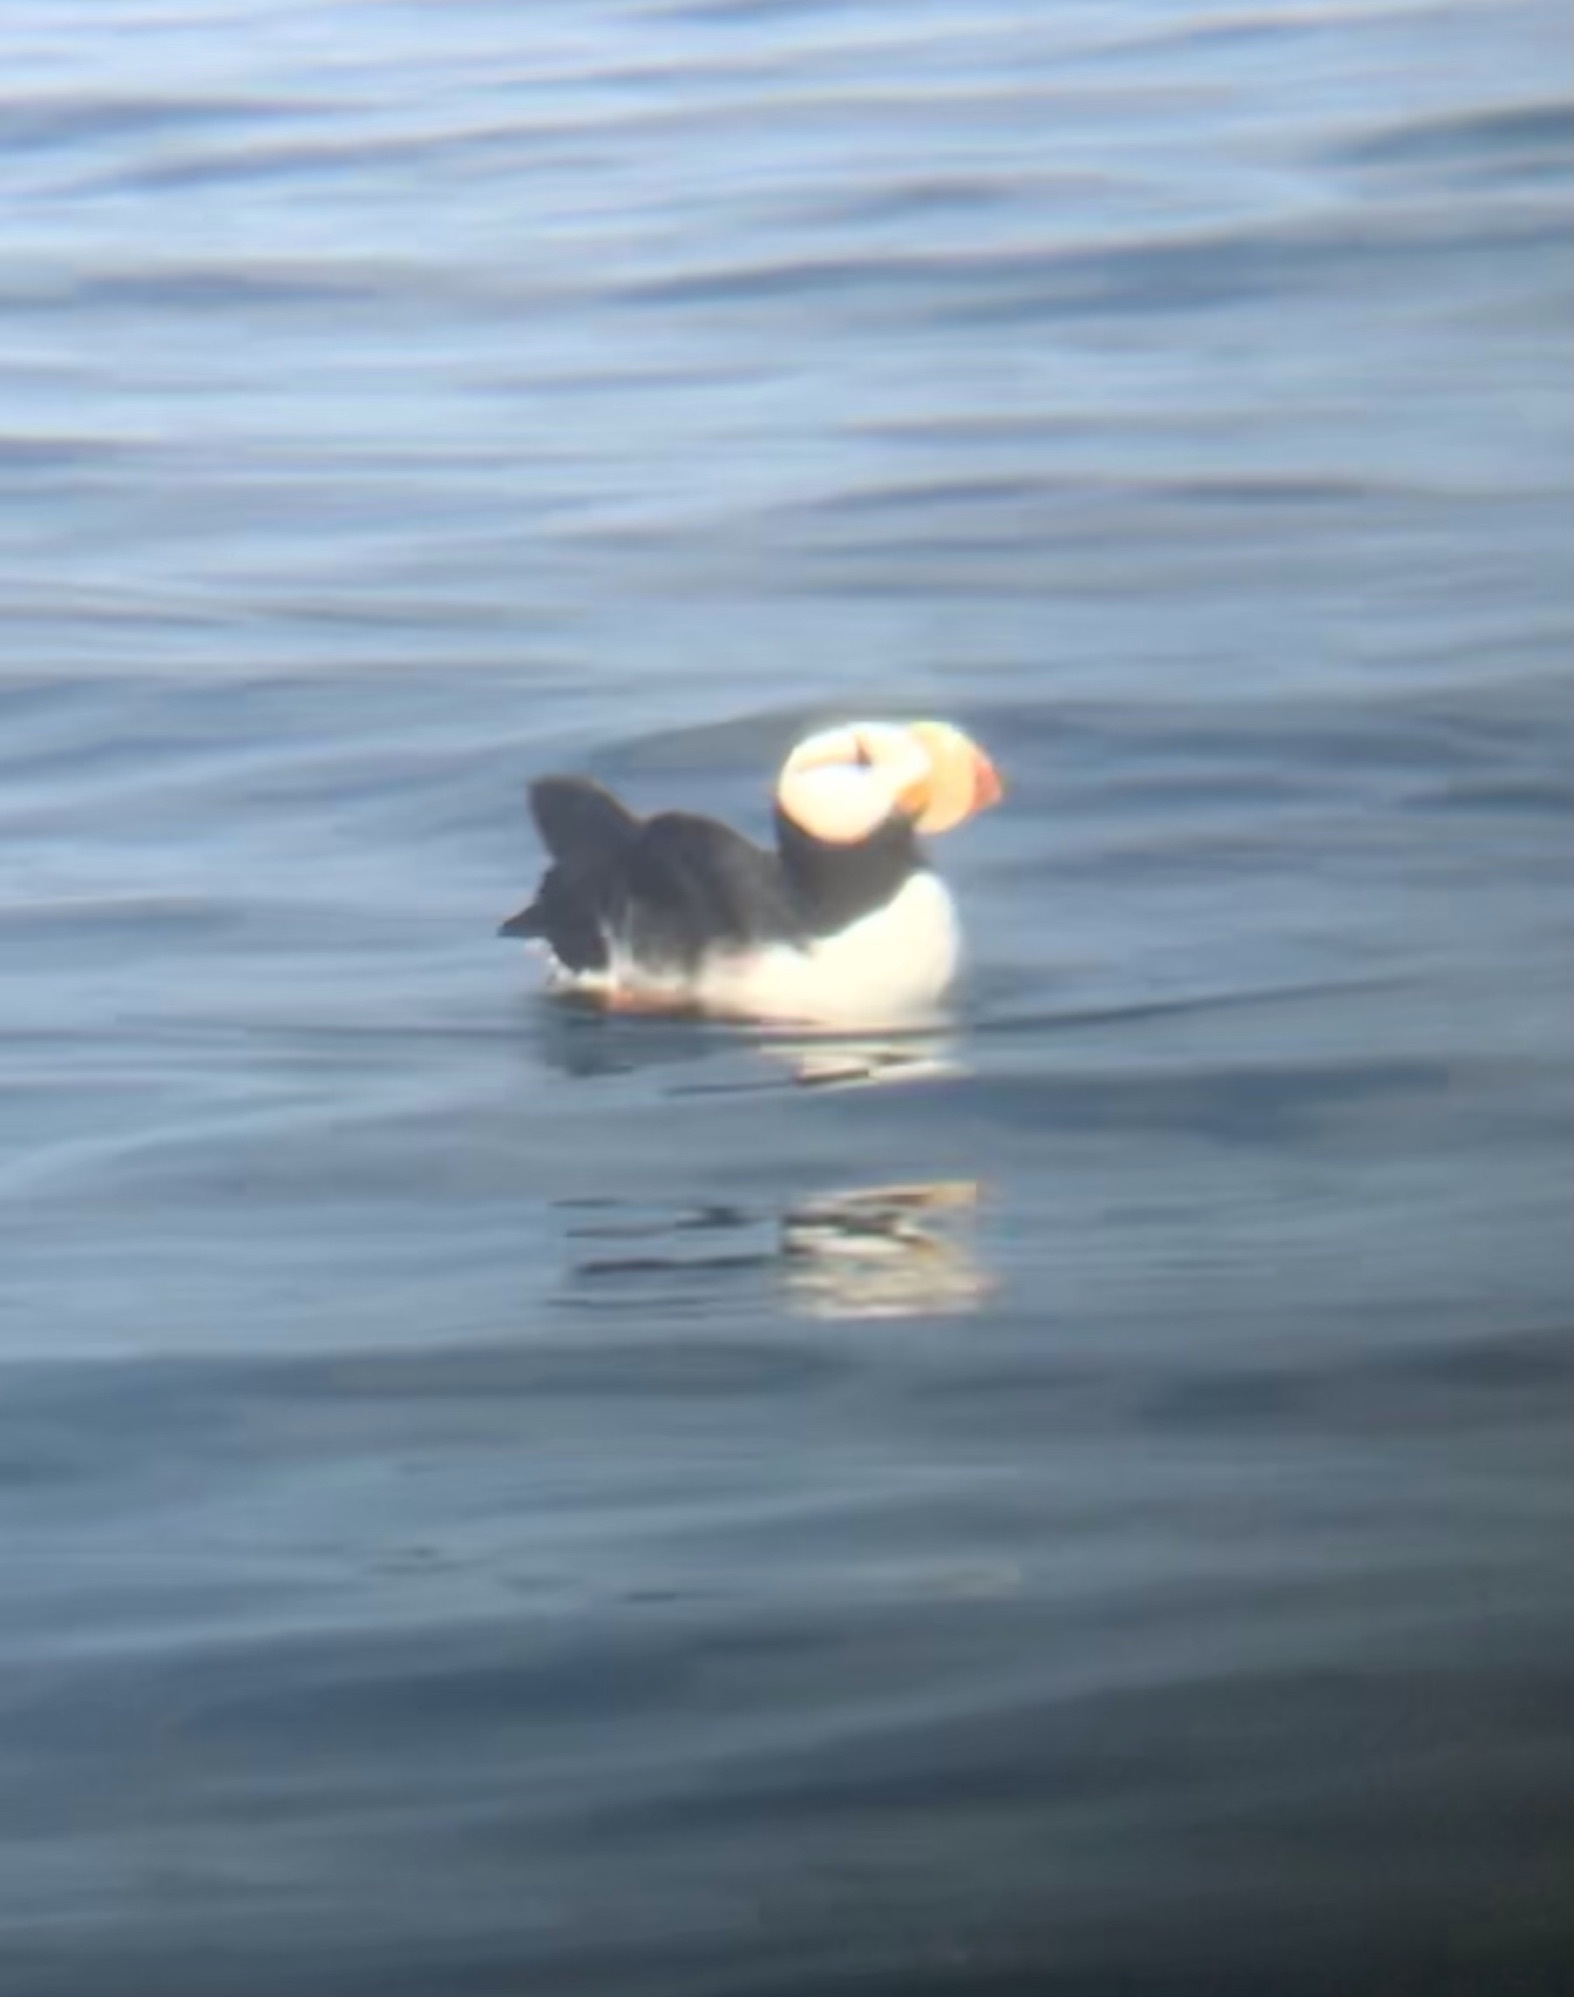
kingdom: Animalia
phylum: Chordata
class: Aves
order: Charadriiformes
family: Alcidae
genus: Fratercula
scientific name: Fratercula corniculata
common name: Horned puffin
